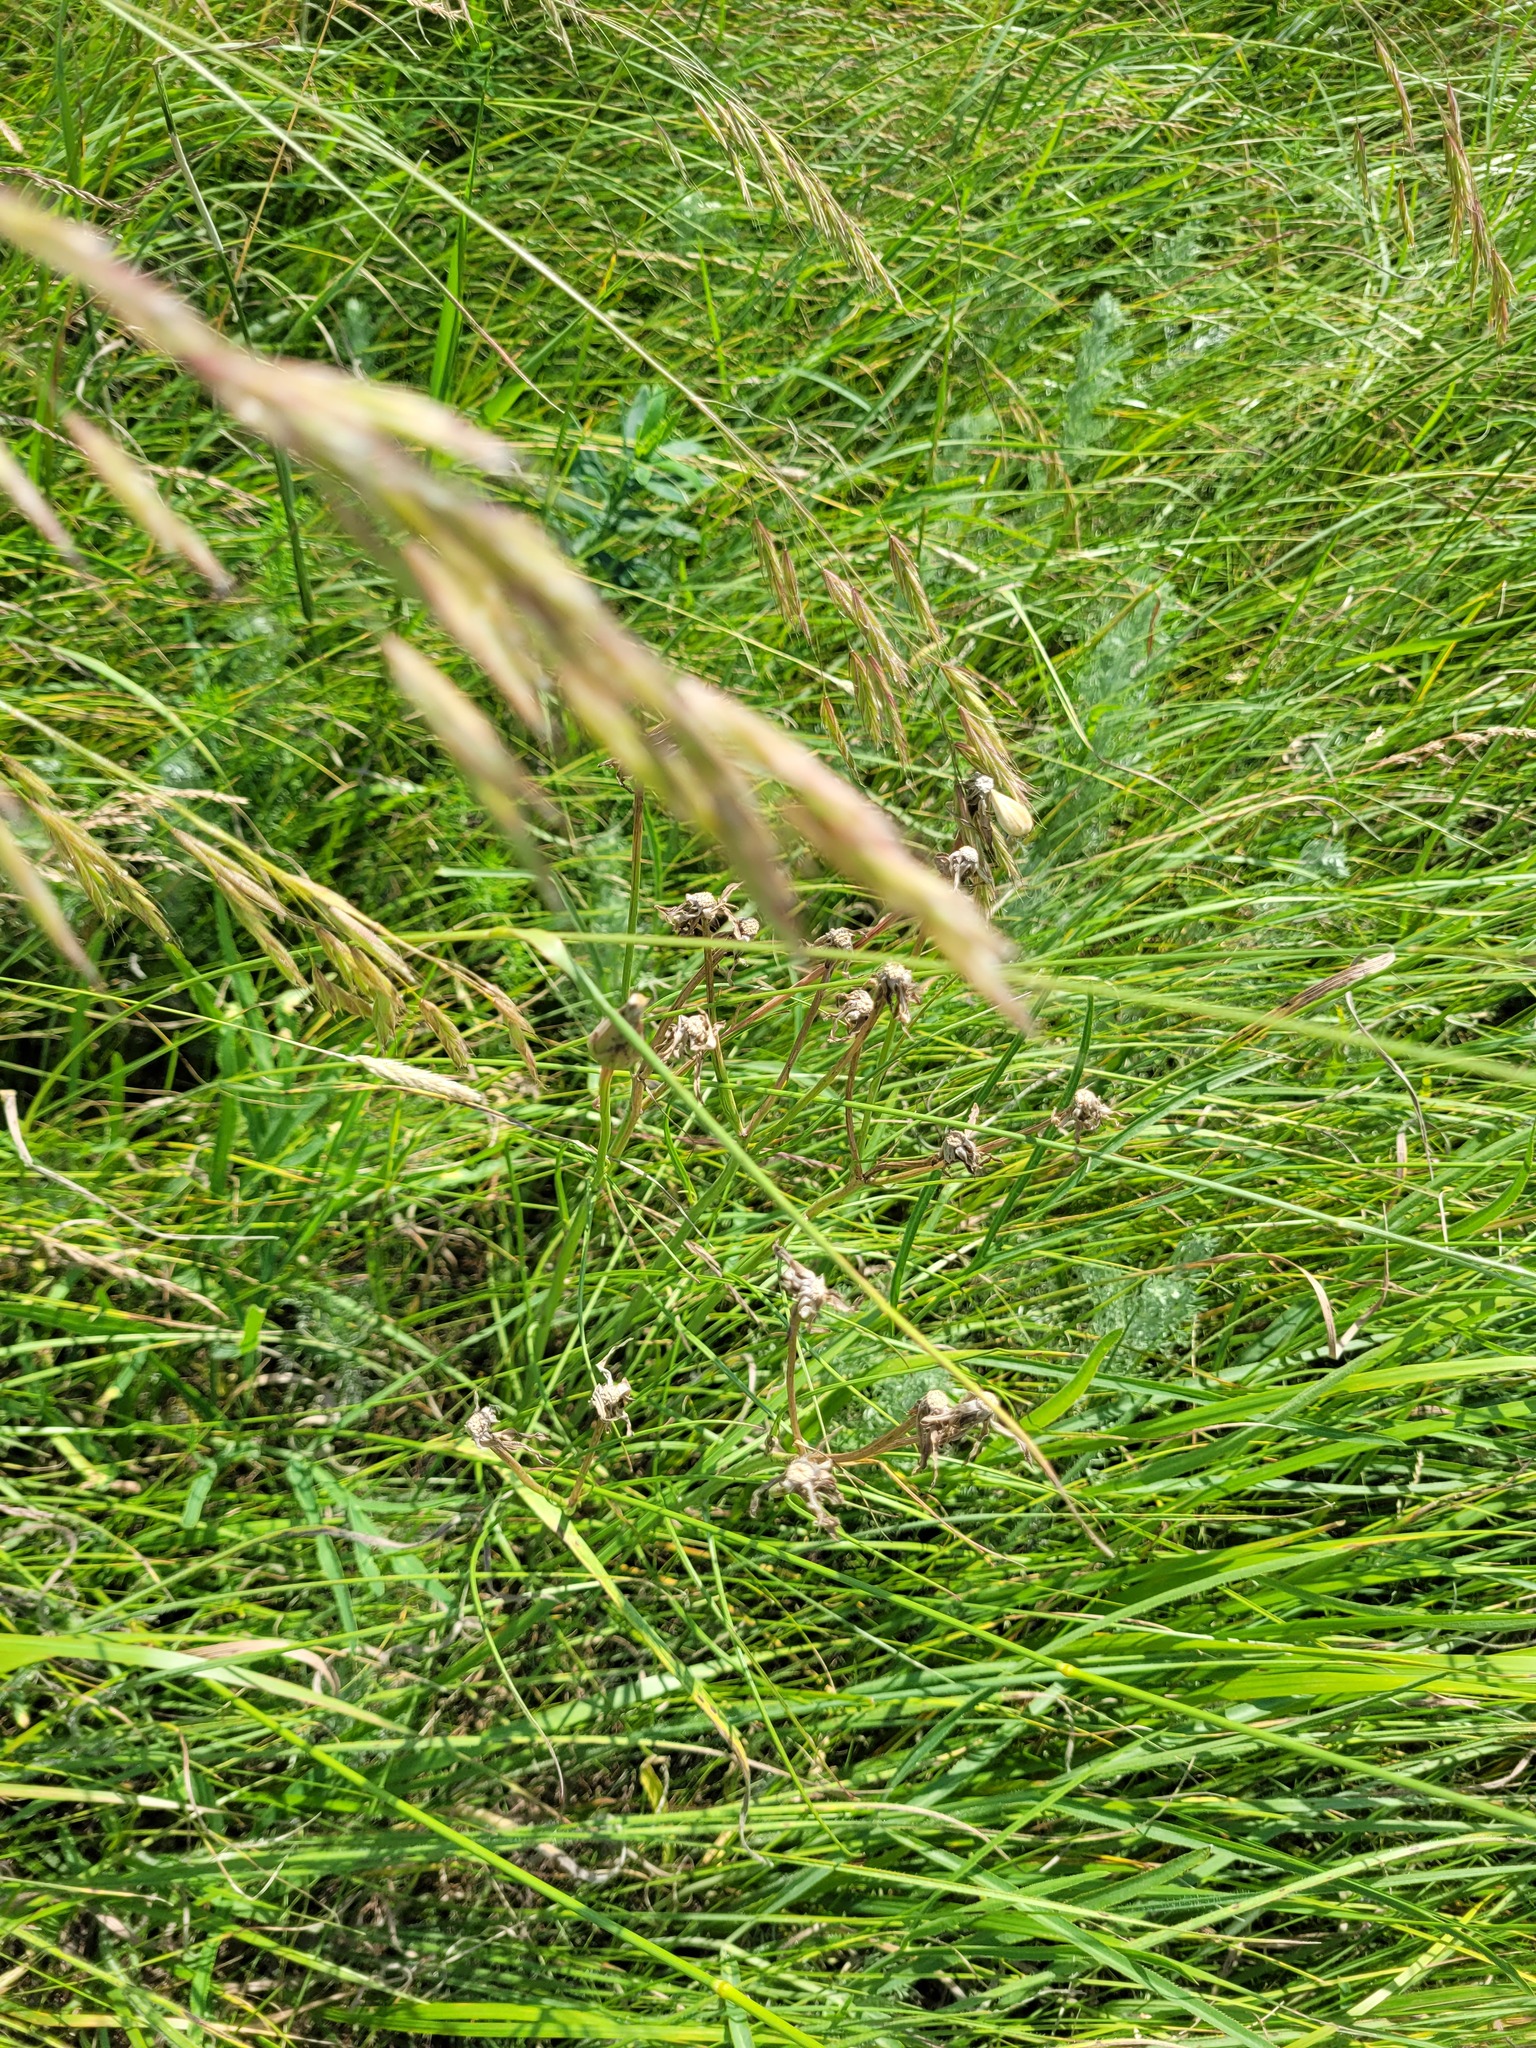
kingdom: Plantae
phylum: Tracheophyta
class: Magnoliopsida
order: Asterales
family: Asteraceae
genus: Scorzonera
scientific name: Scorzonera purpurea
